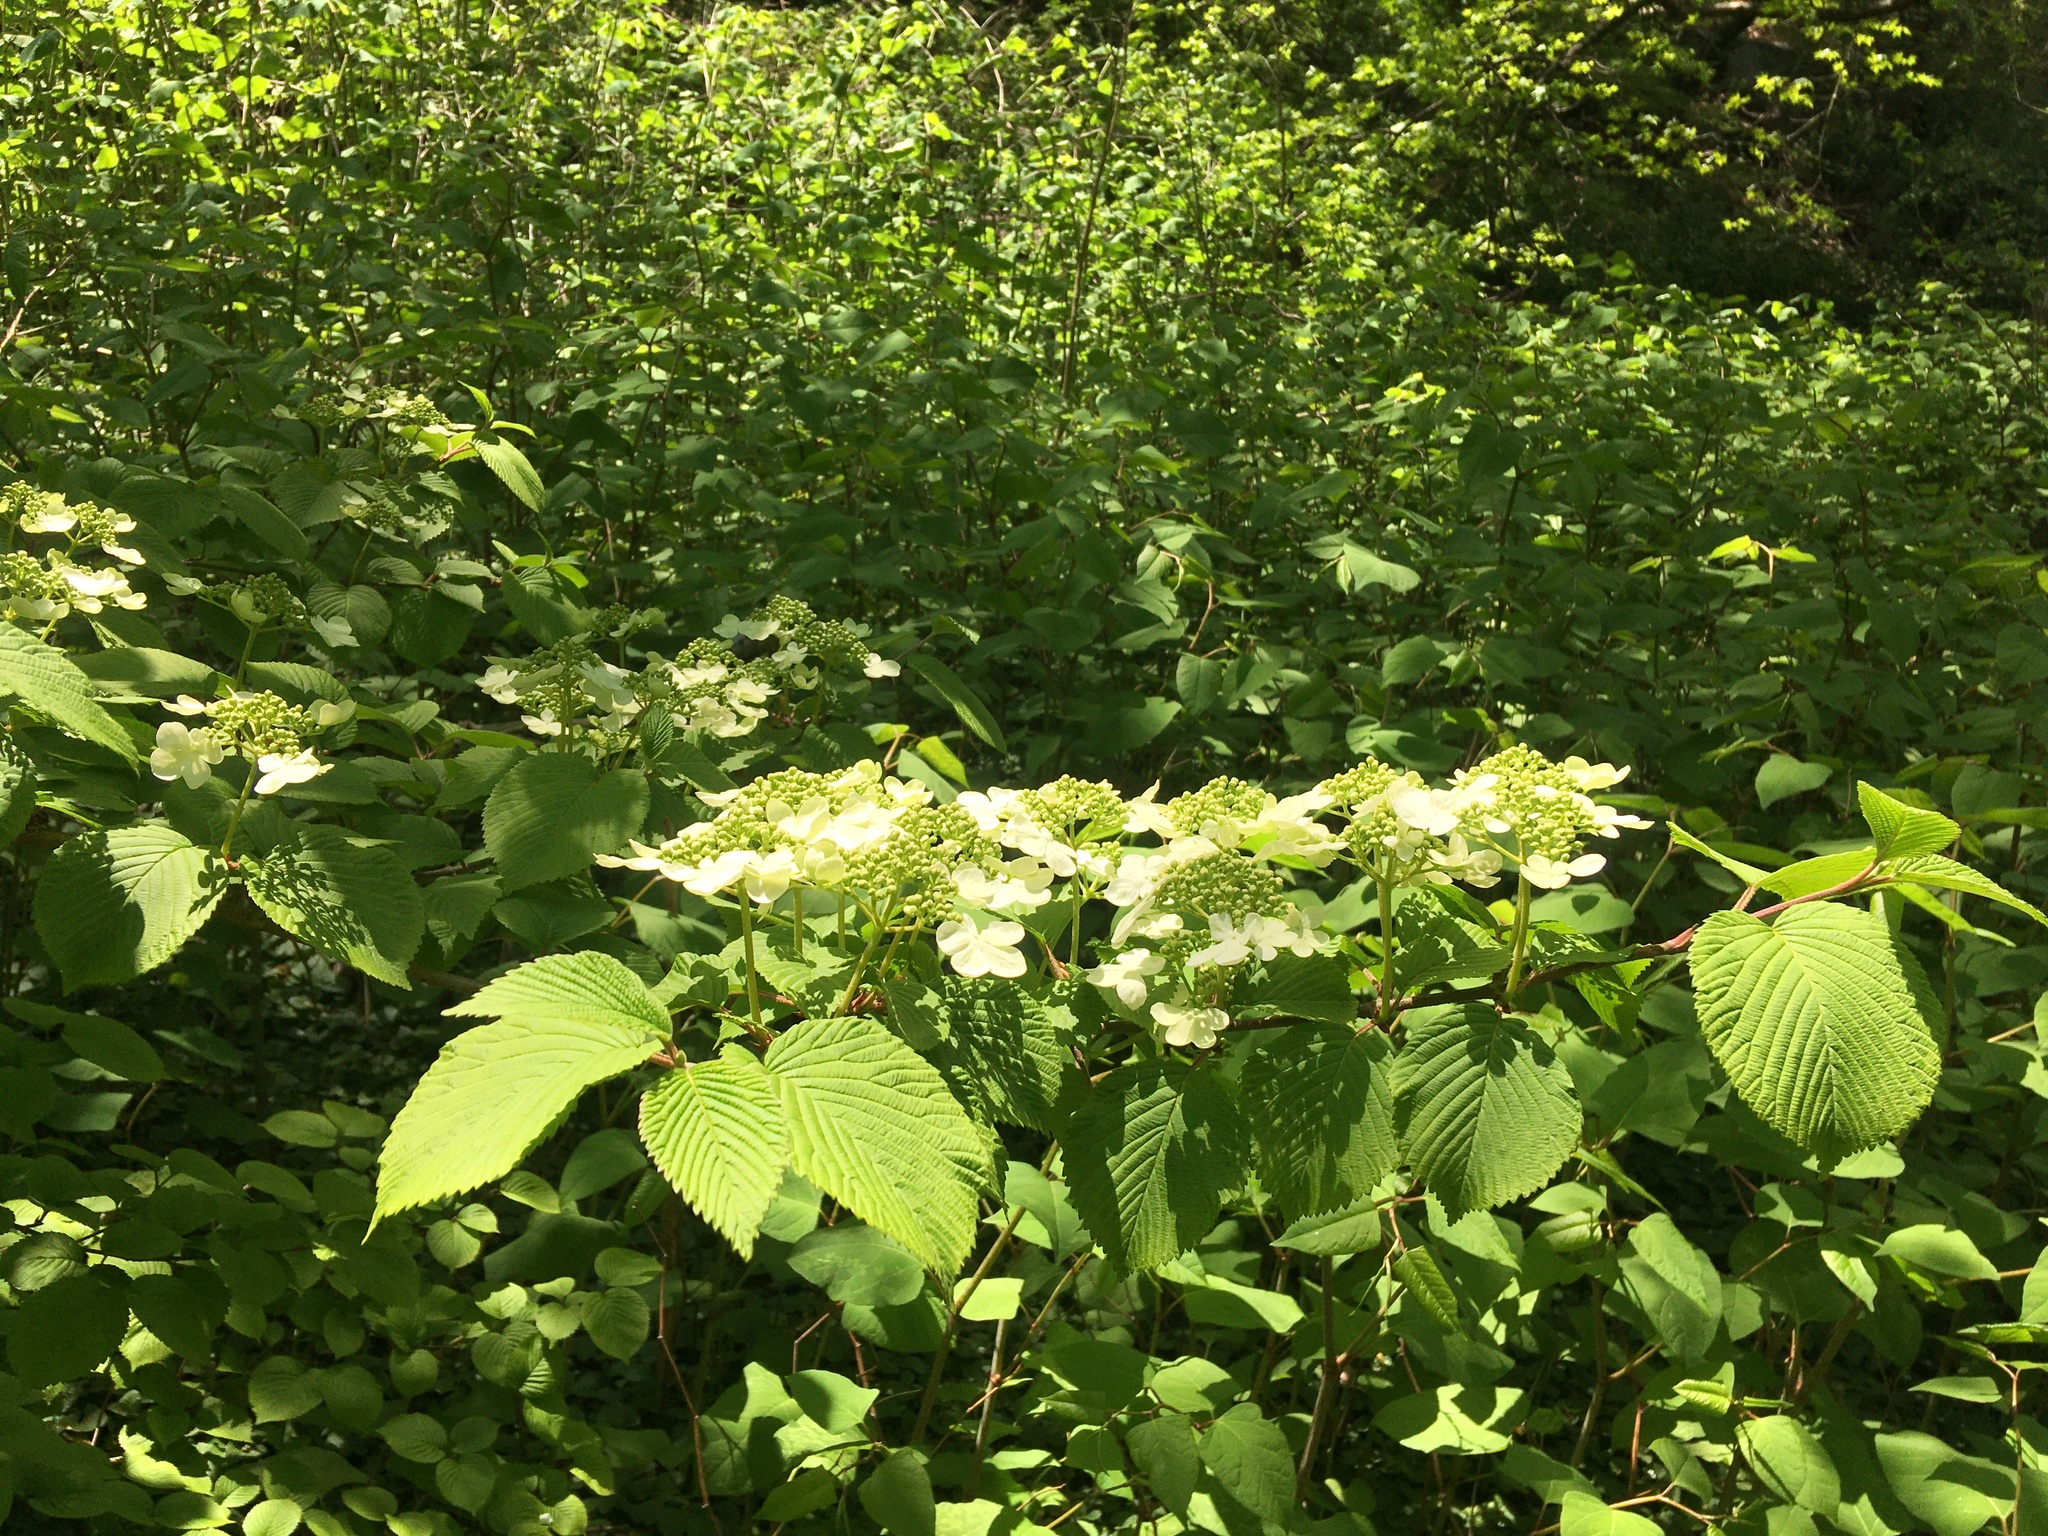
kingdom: Plantae
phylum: Tracheophyta
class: Magnoliopsida
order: Dipsacales
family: Viburnaceae
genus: Viburnum
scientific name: Viburnum plicatum
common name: Japanese snowball
